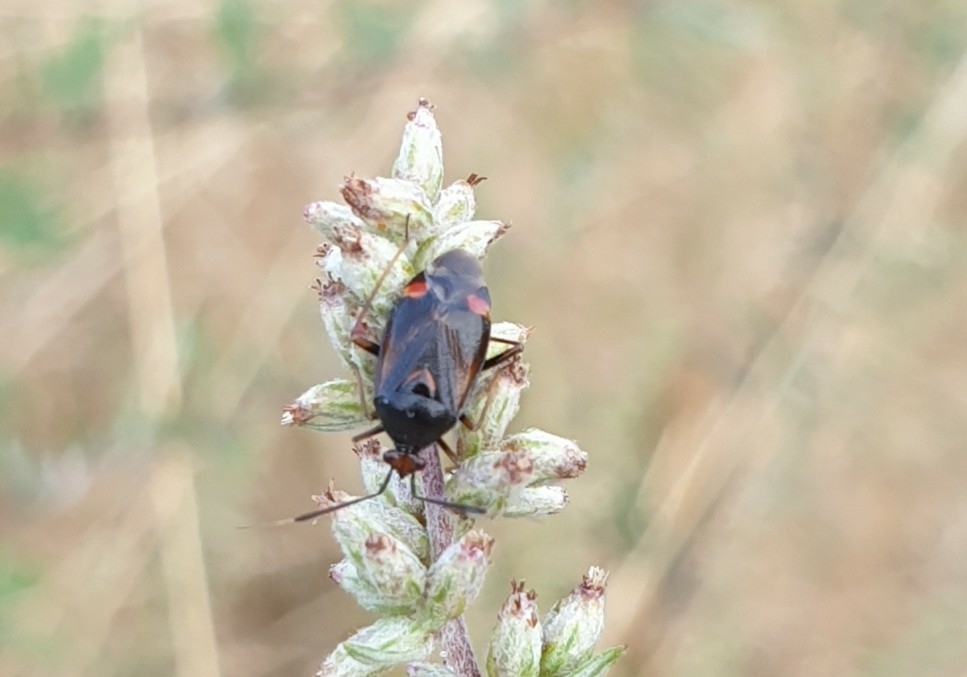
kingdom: Animalia
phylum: Arthropoda
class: Insecta
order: Hemiptera
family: Miridae
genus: Deraeocoris
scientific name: Deraeocoris ruber
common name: Plant bug
